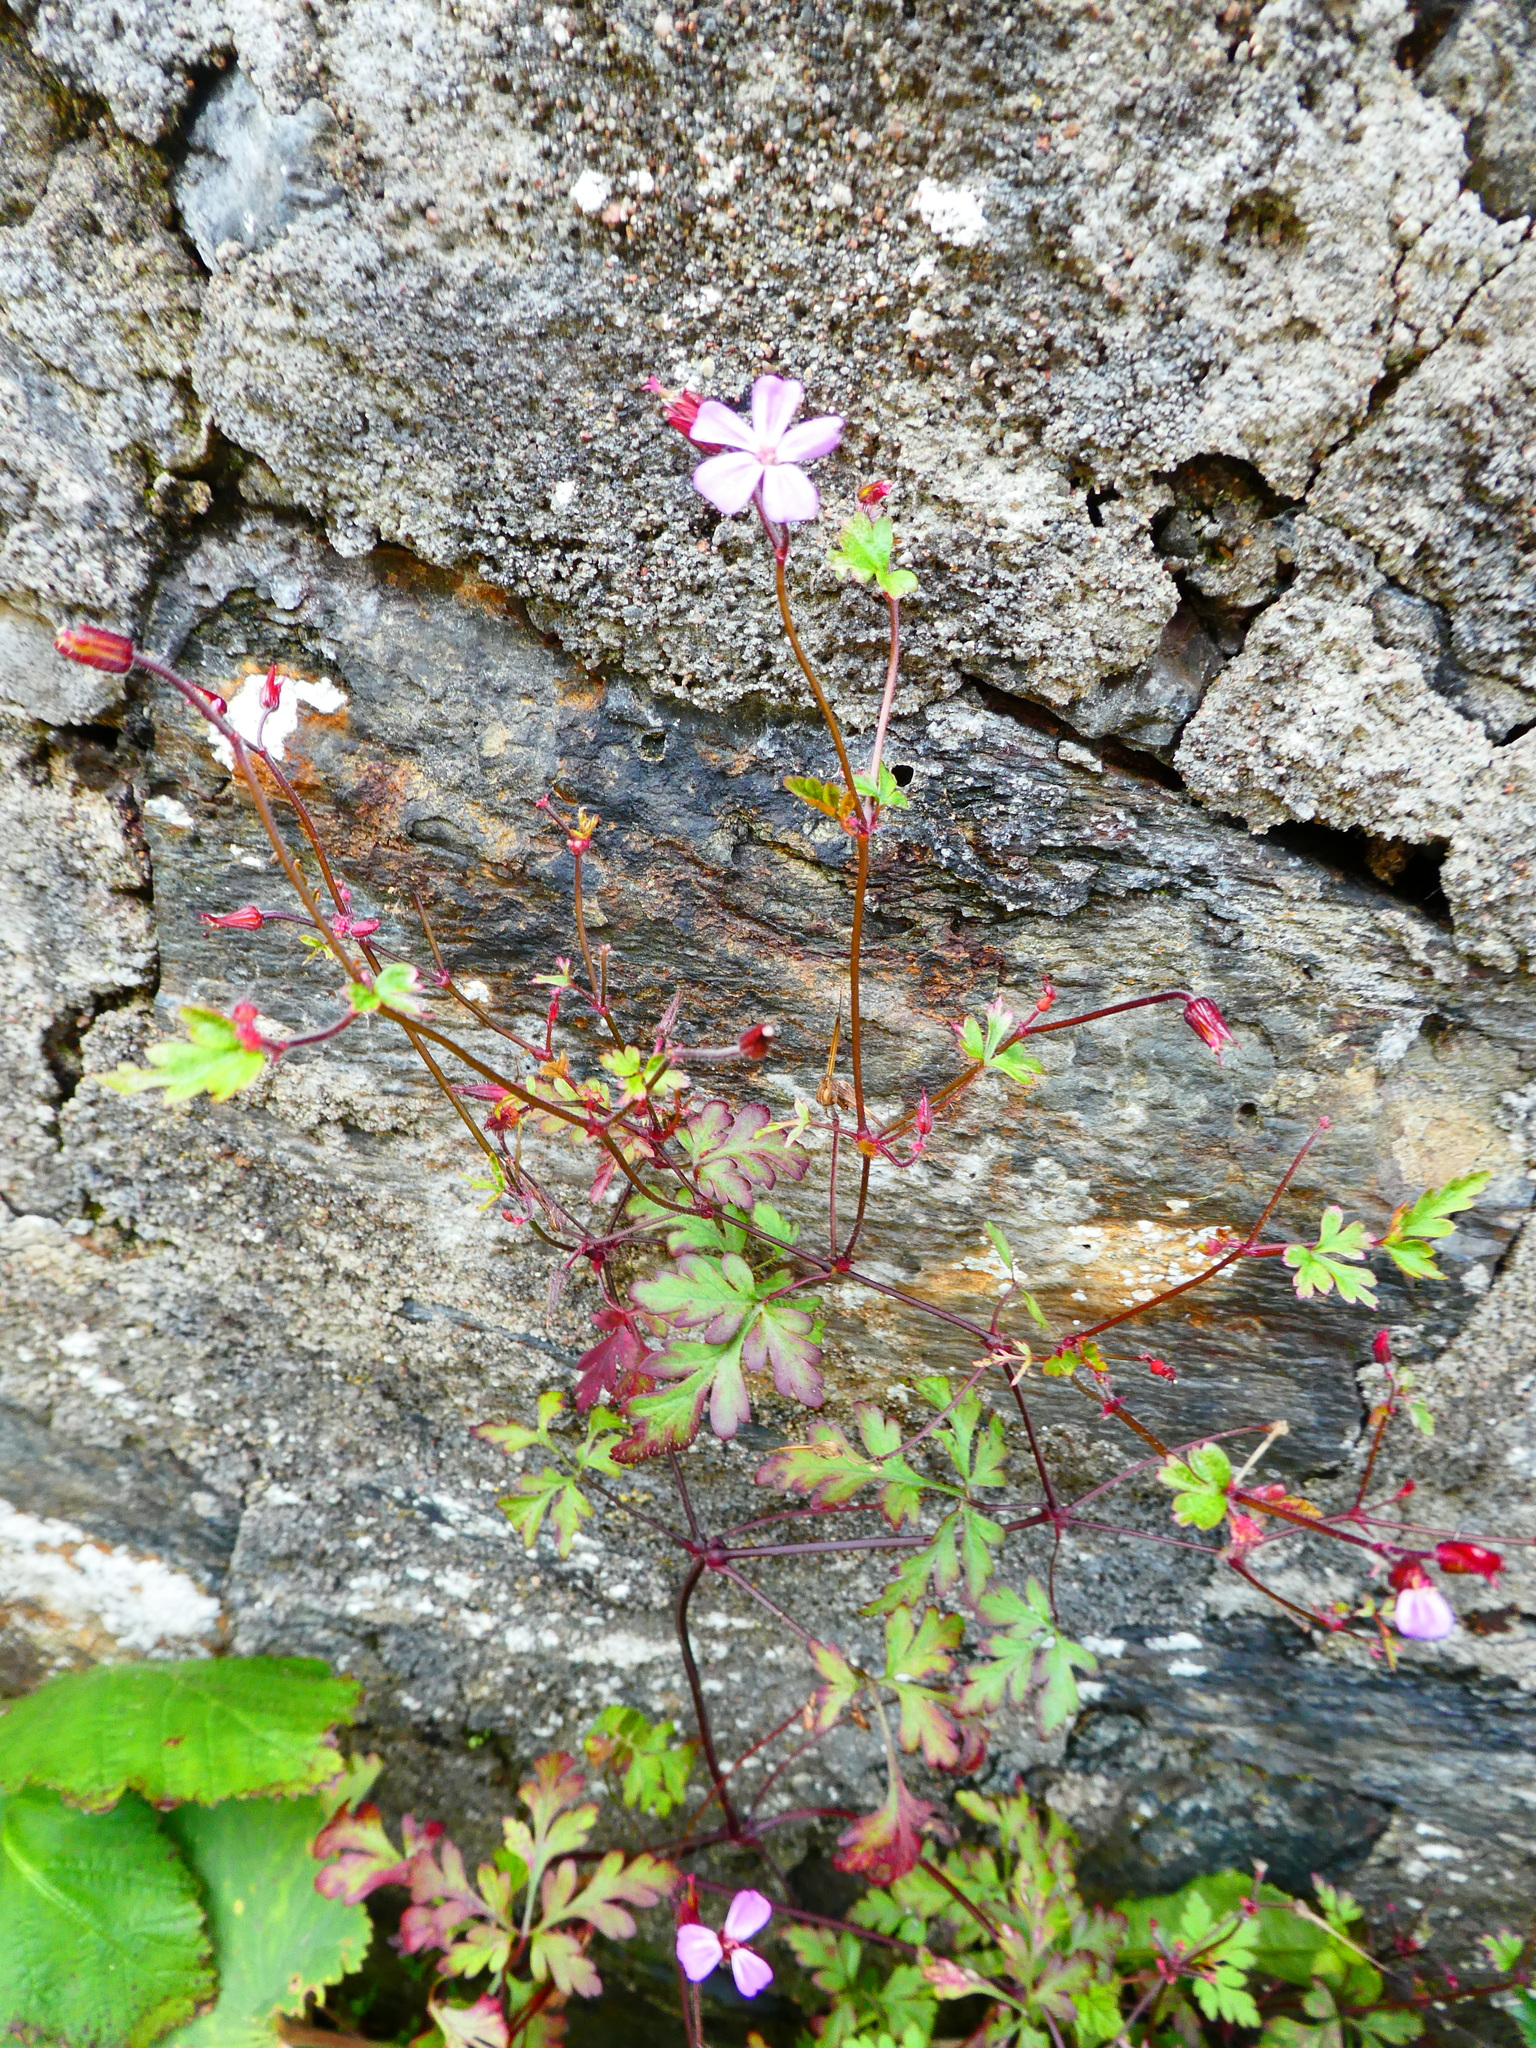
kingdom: Plantae
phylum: Tracheophyta
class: Magnoliopsida
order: Geraniales
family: Geraniaceae
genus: Geranium
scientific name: Geranium robertianum
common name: Herb-robert
